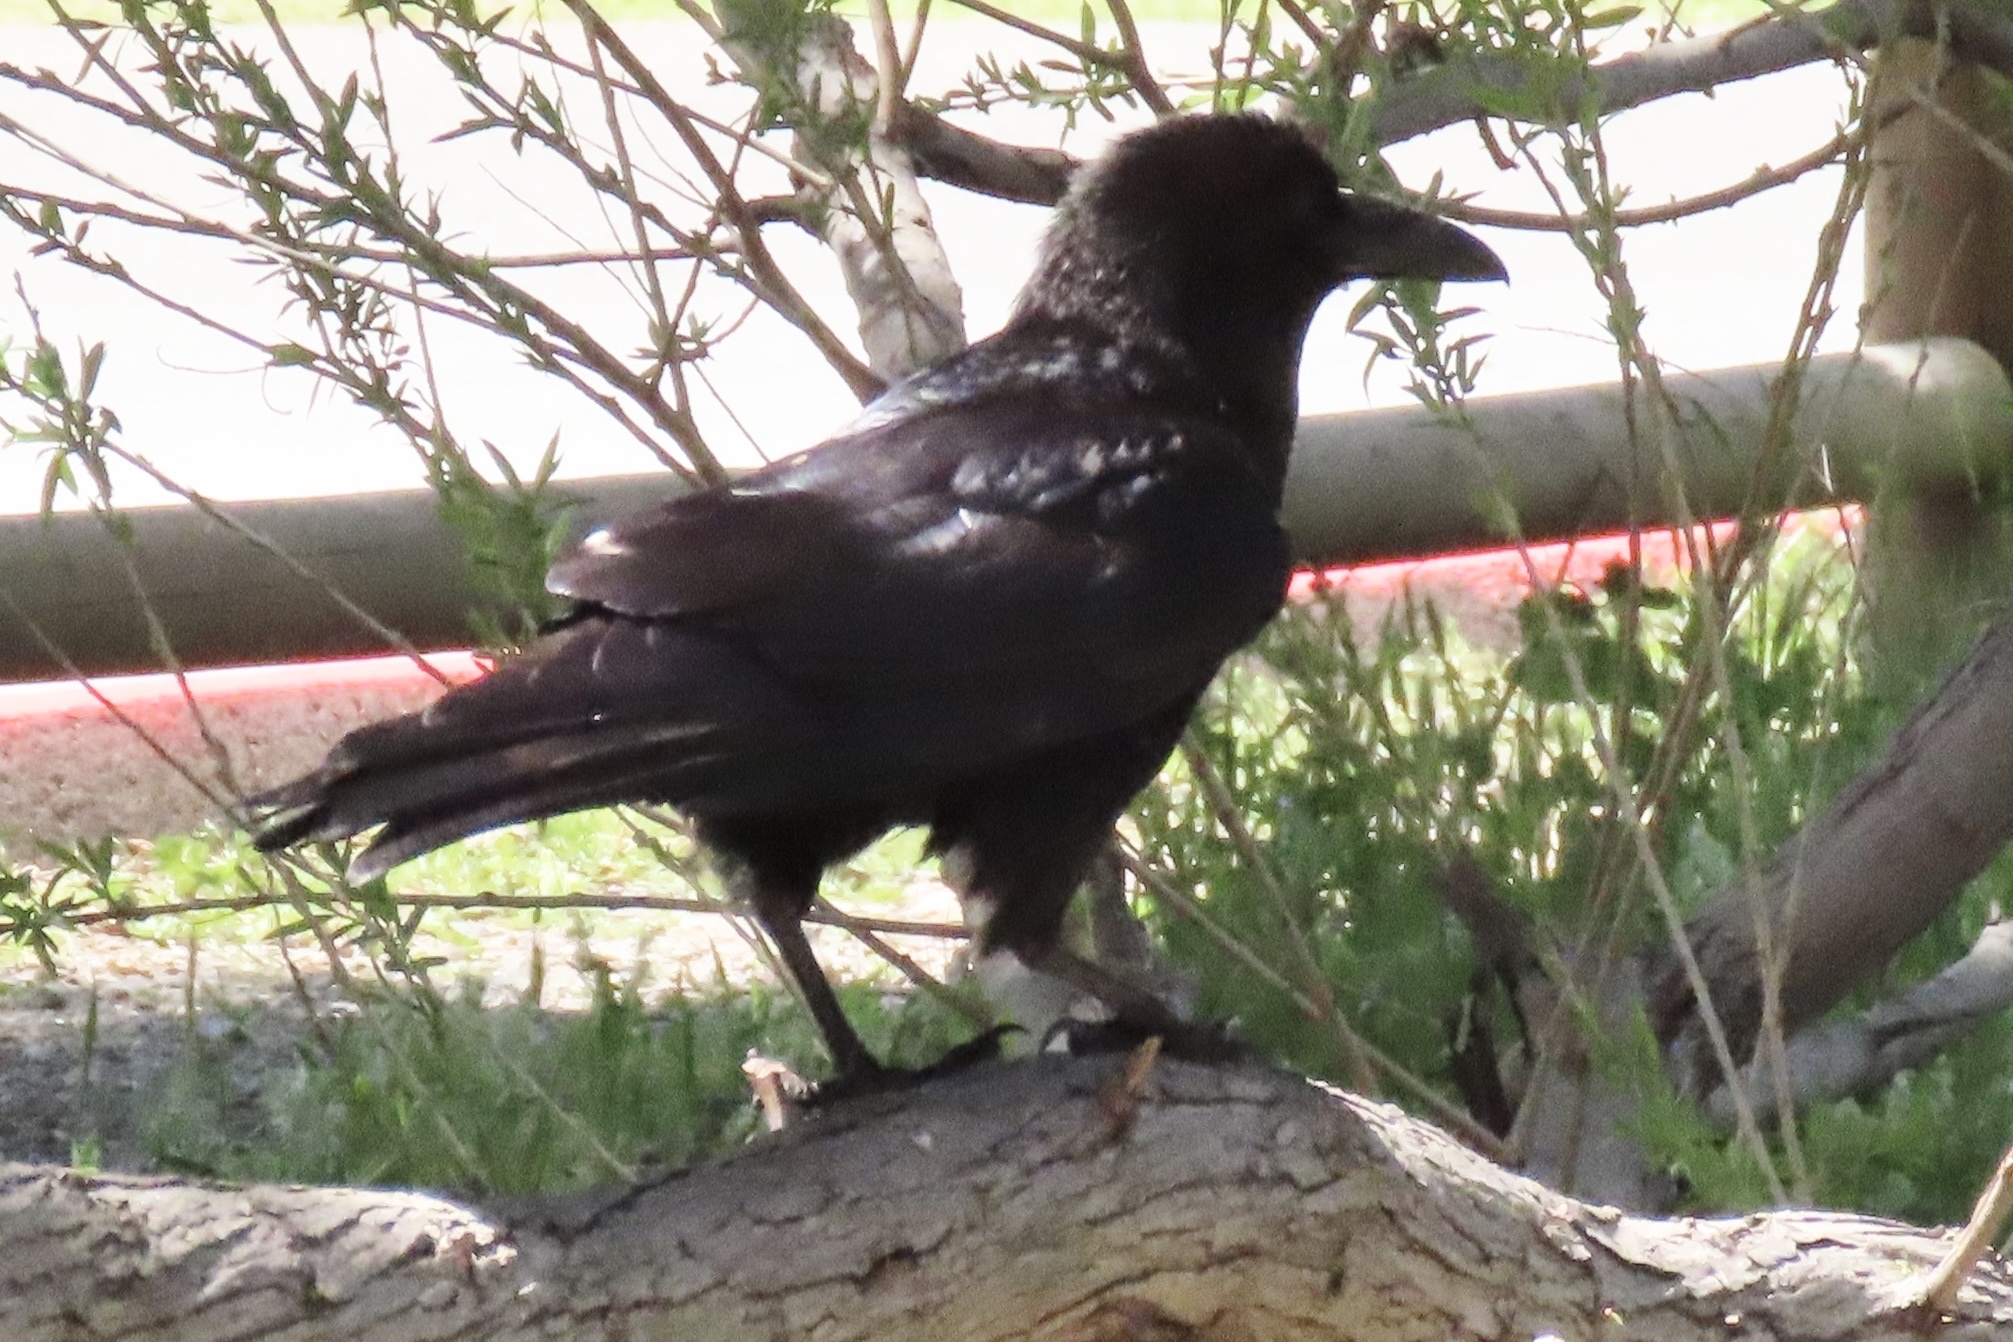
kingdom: Animalia
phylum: Chordata
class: Aves
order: Passeriformes
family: Corvidae
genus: Corvus
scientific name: Corvus corax
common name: Common raven
